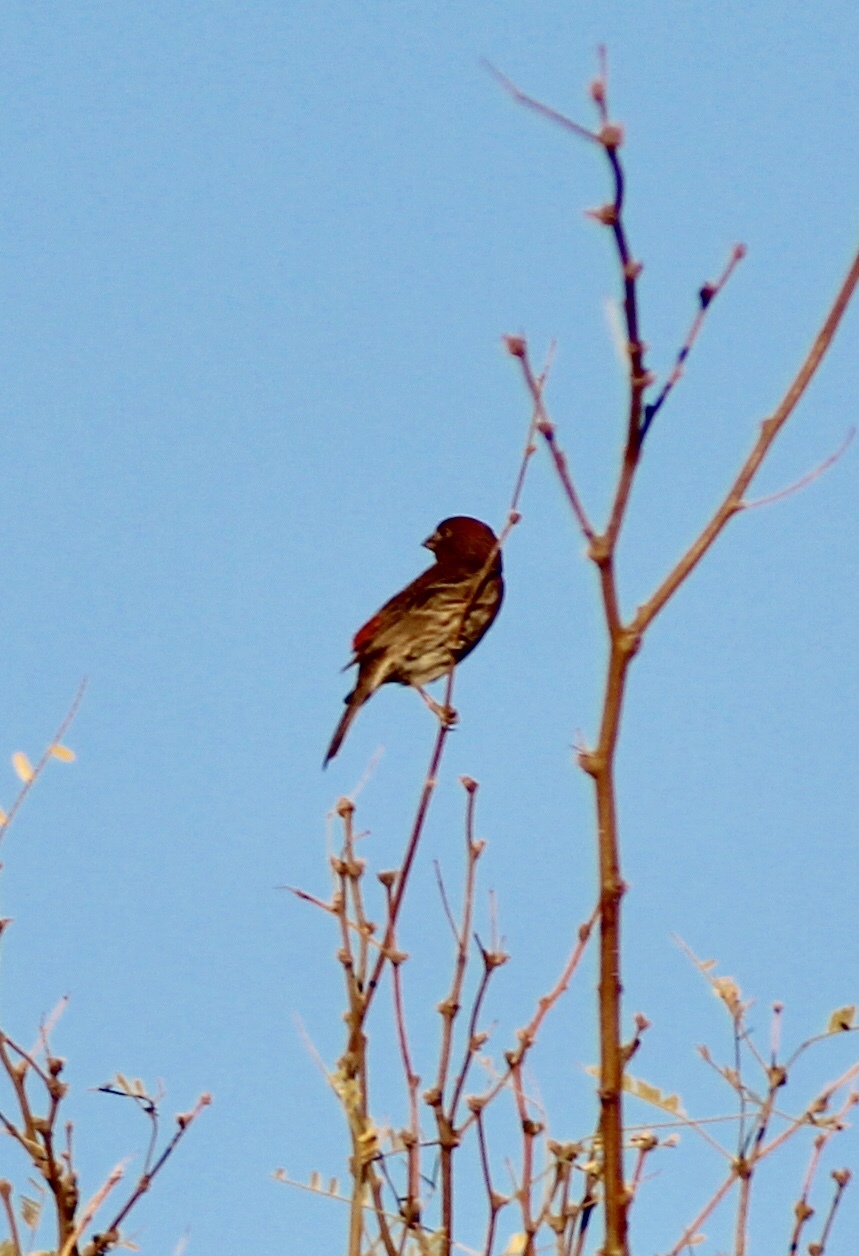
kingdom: Animalia
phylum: Chordata
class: Aves
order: Passeriformes
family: Fringillidae
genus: Haemorhous
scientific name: Haemorhous mexicanus
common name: House finch
